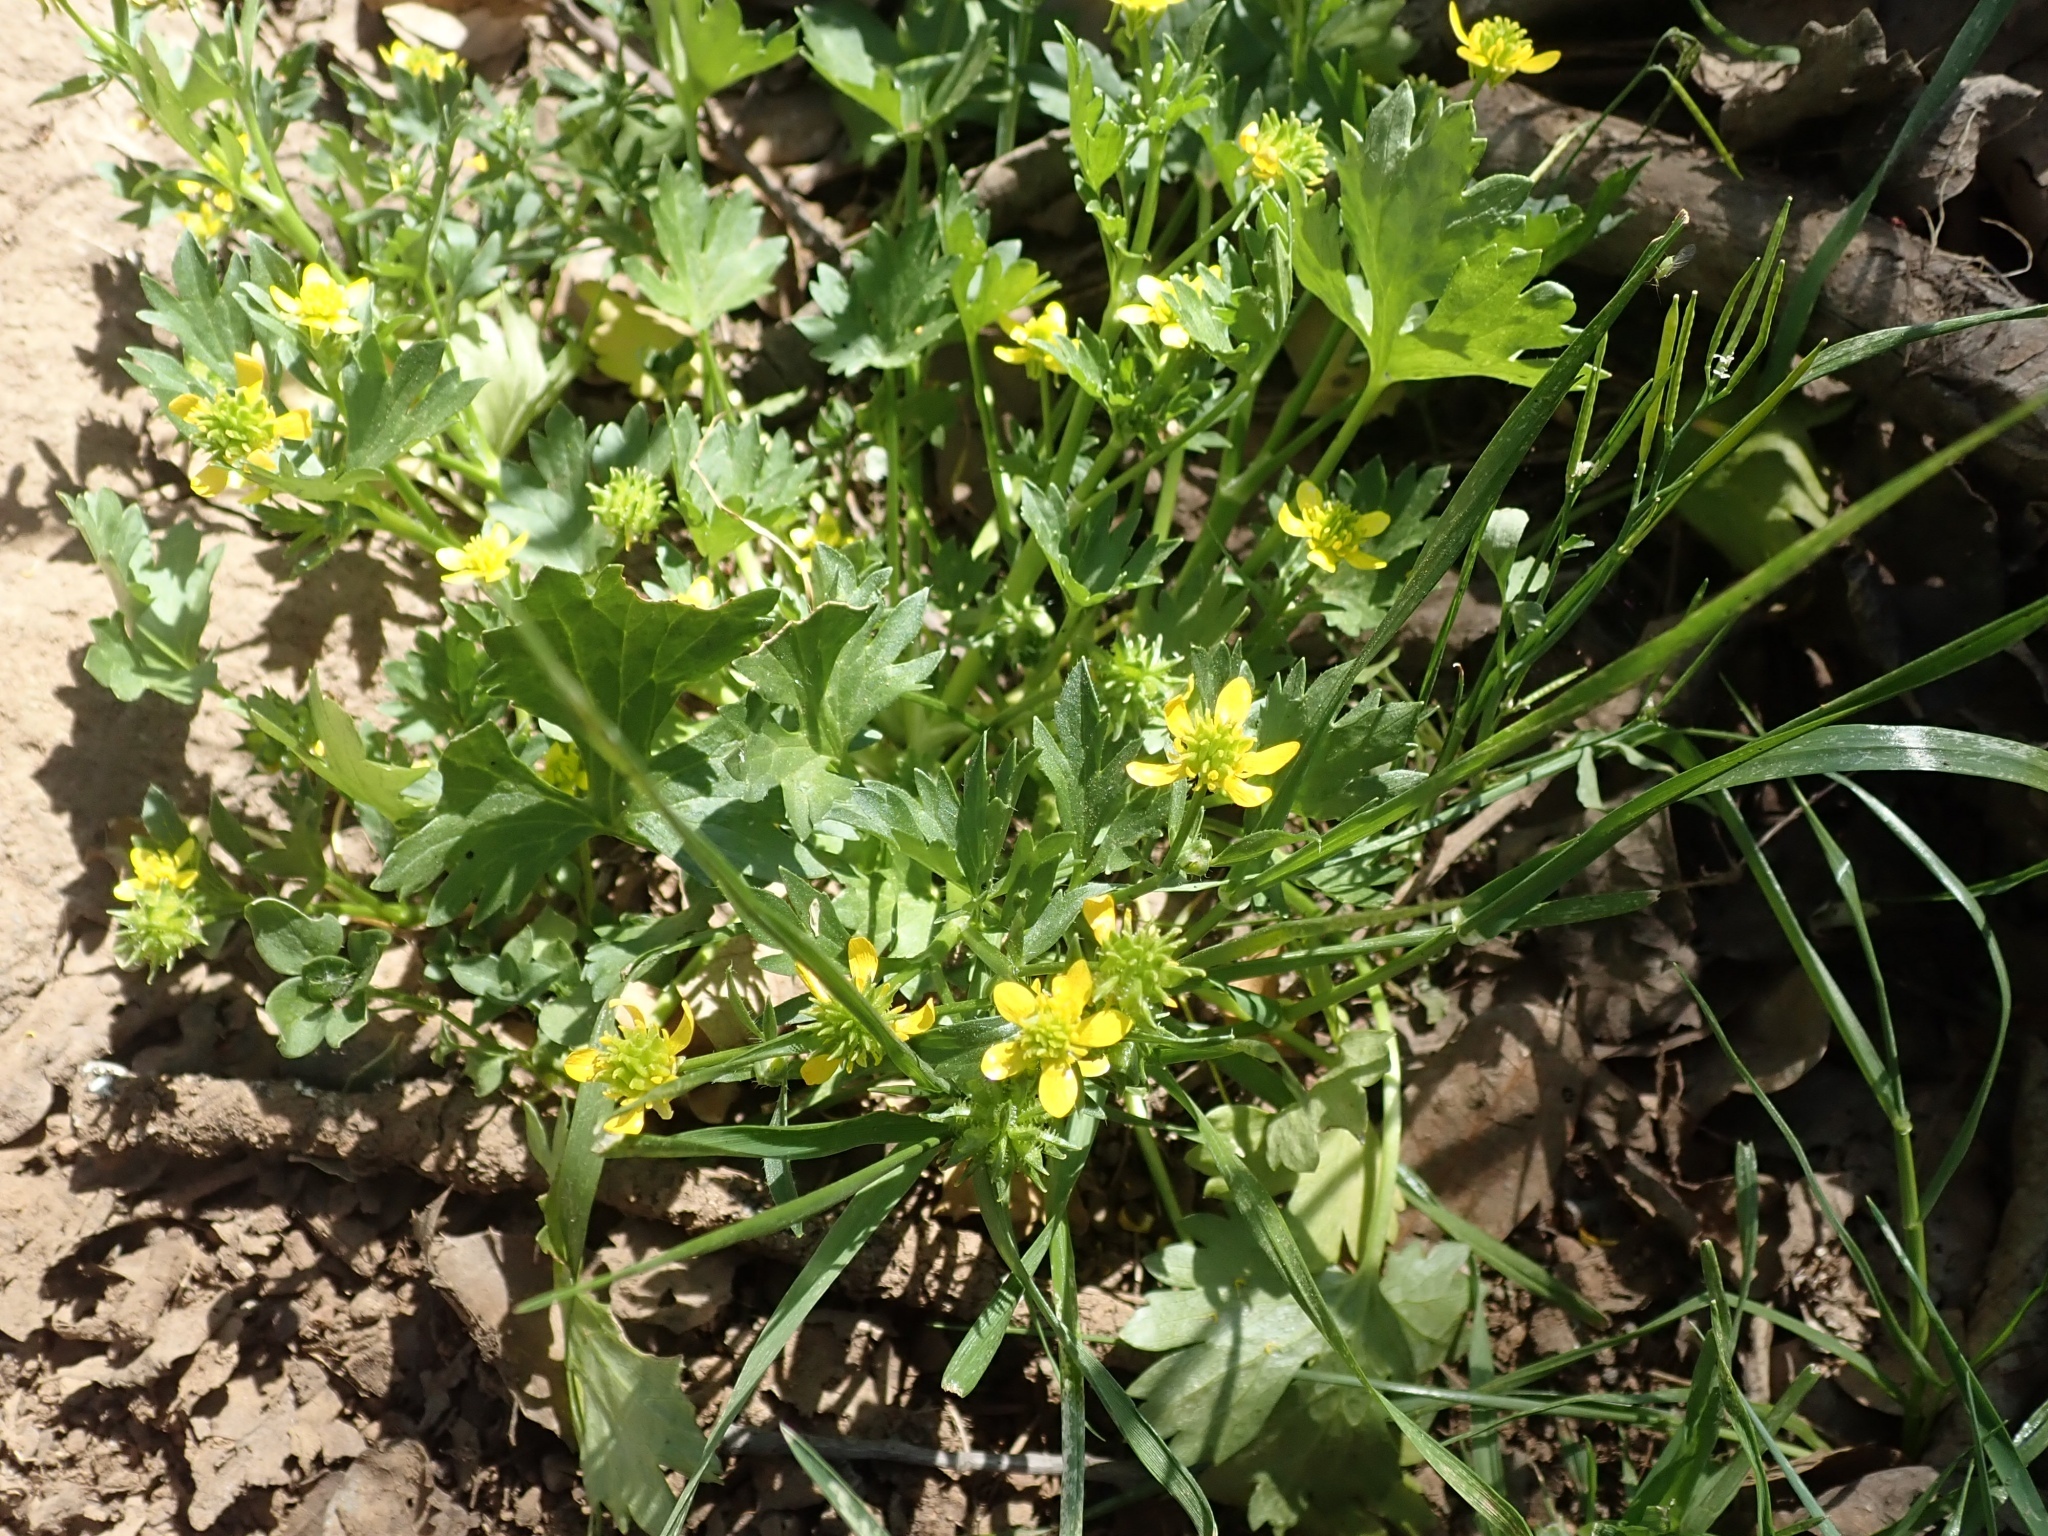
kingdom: Plantae
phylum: Tracheophyta
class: Magnoliopsida
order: Ranunculales
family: Ranunculaceae
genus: Ranunculus
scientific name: Ranunculus muricatus
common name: Rough-fruited buttercup
